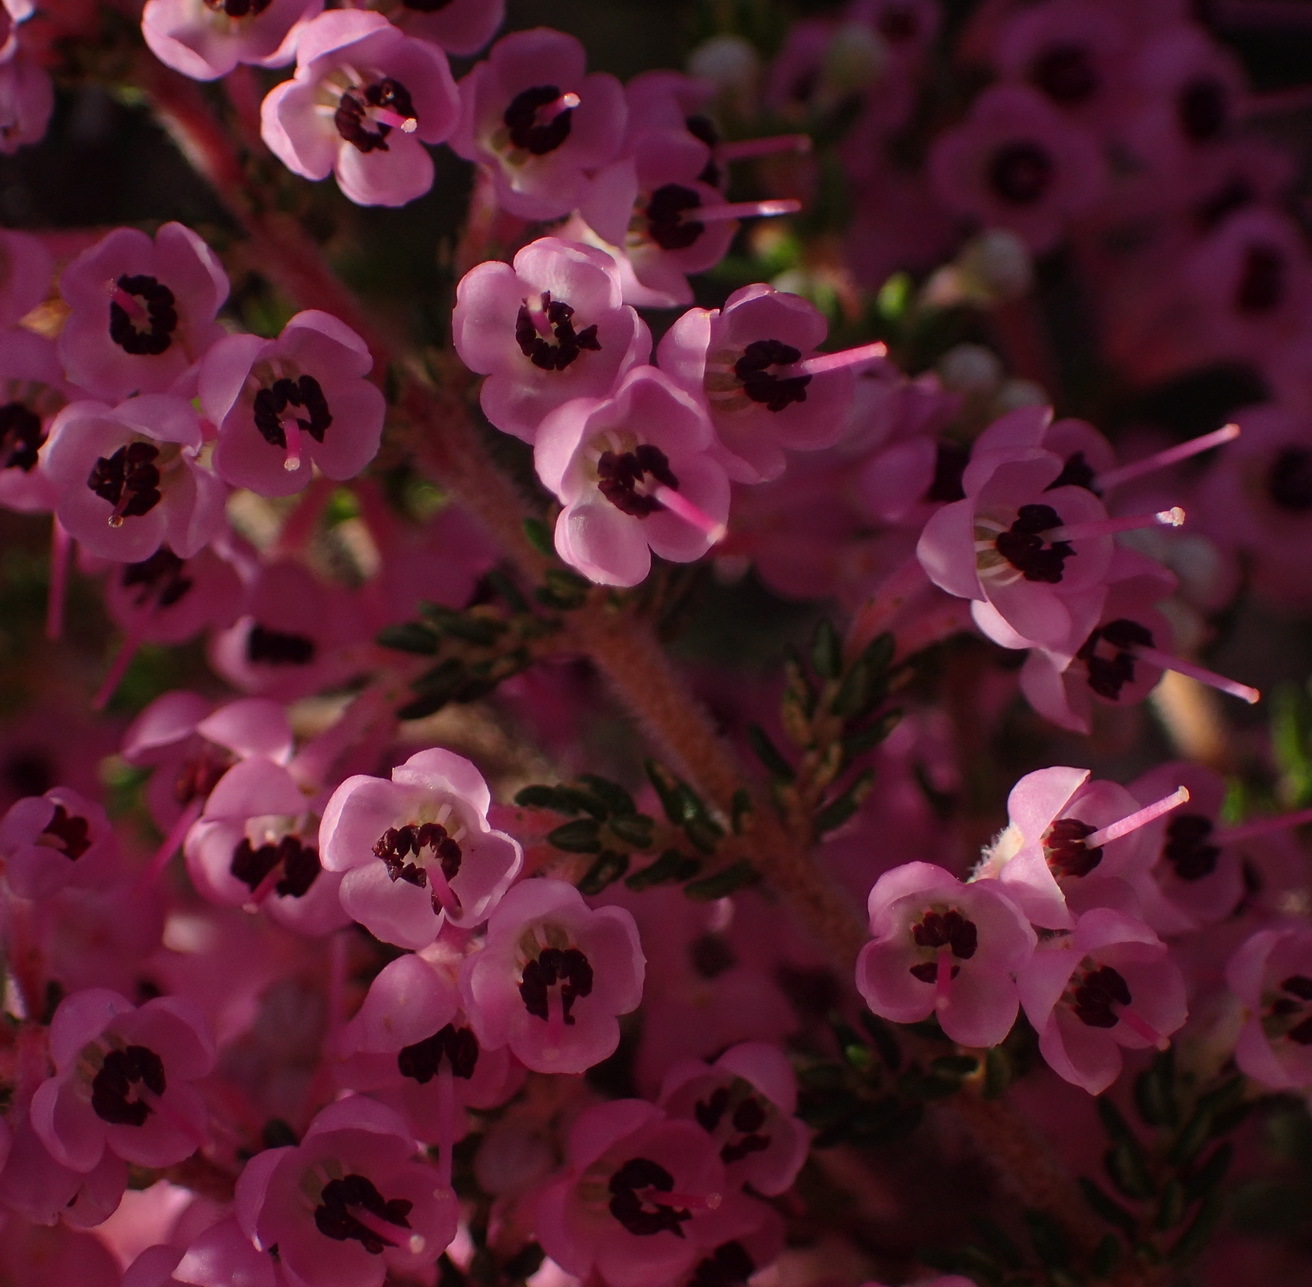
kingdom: Plantae
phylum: Tracheophyta
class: Magnoliopsida
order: Ericales
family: Ericaceae
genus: Erica
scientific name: Erica melanthera
